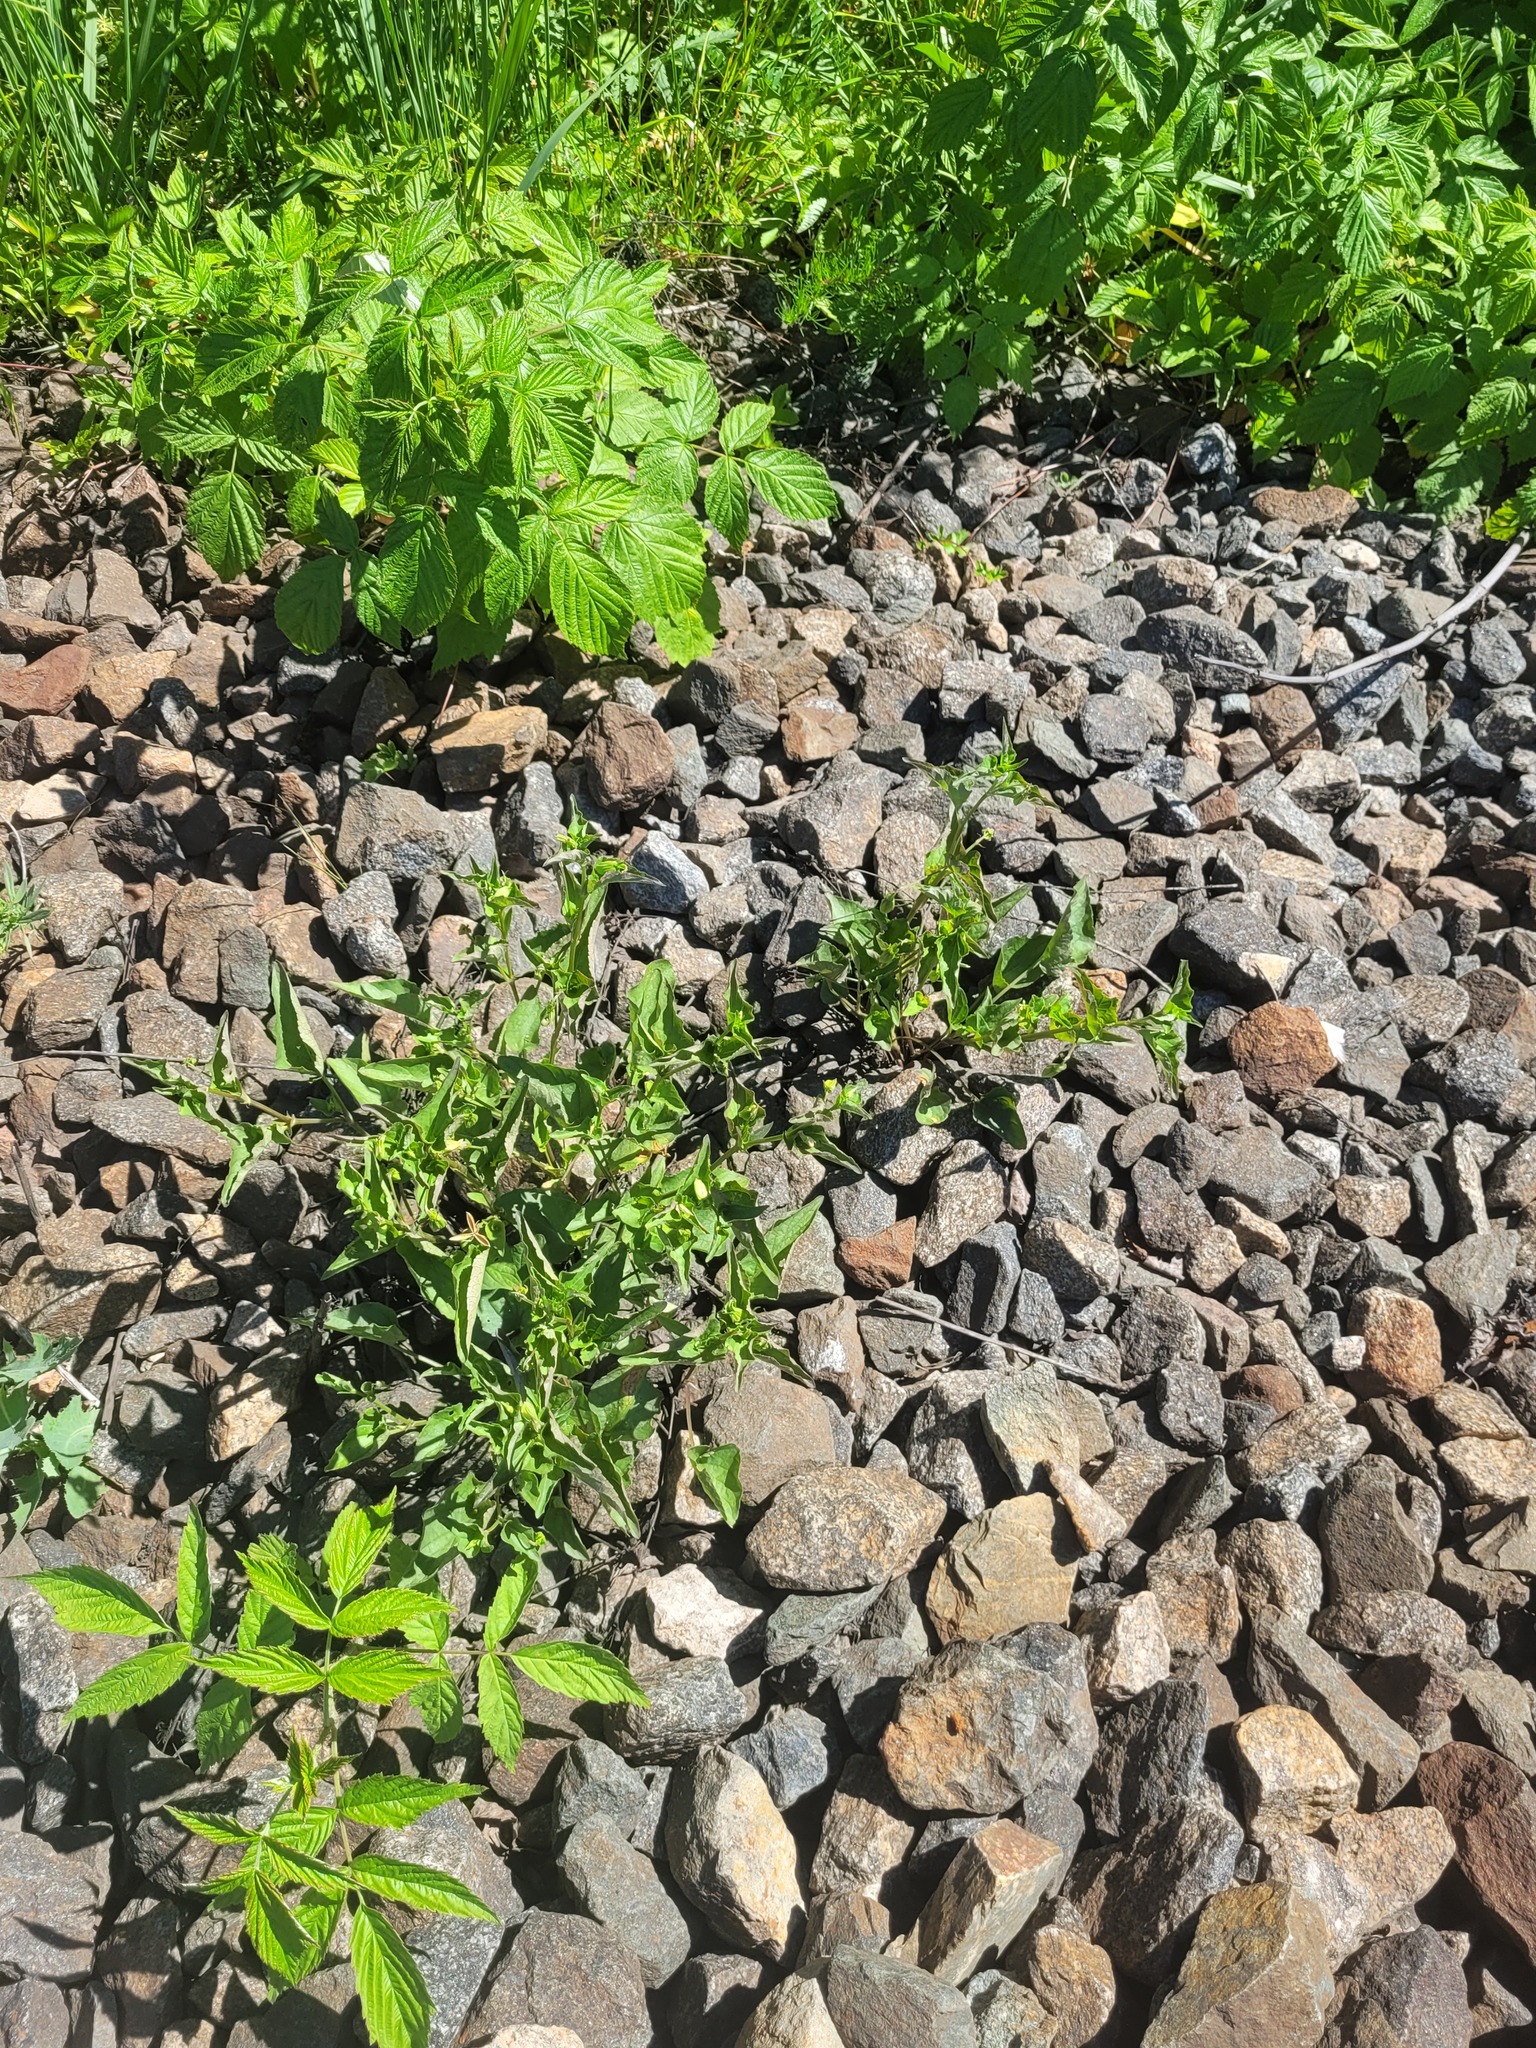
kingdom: Plantae
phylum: Tracheophyta
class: Magnoliopsida
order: Malpighiales
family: Violaceae
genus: Viola
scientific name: Viola canina
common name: Heath dog-violet
